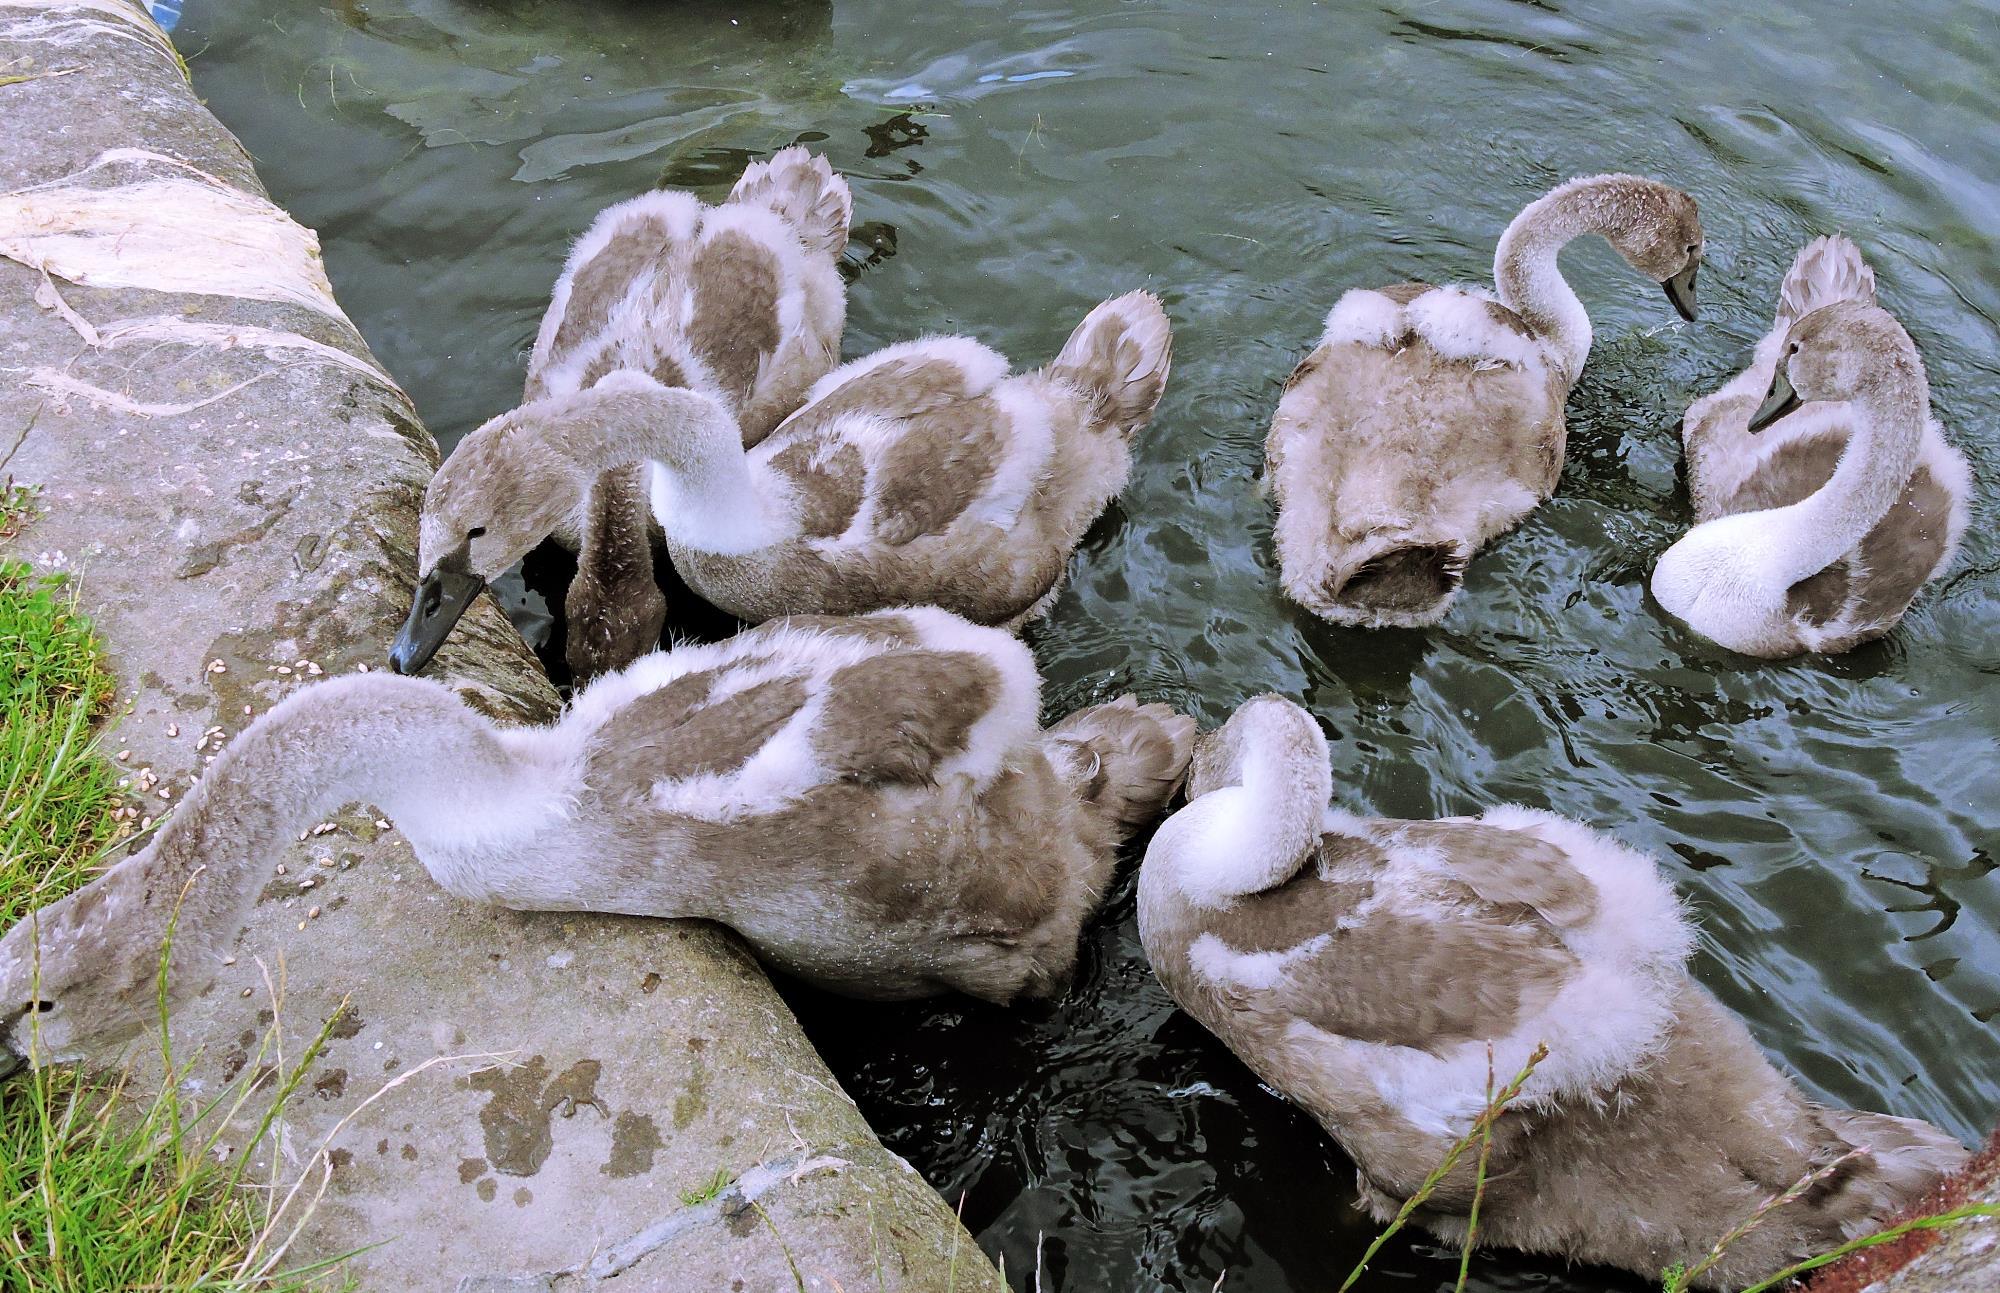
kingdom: Animalia
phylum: Chordata
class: Aves
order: Anseriformes
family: Anatidae
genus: Cygnus
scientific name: Cygnus olor
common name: Mute swan
